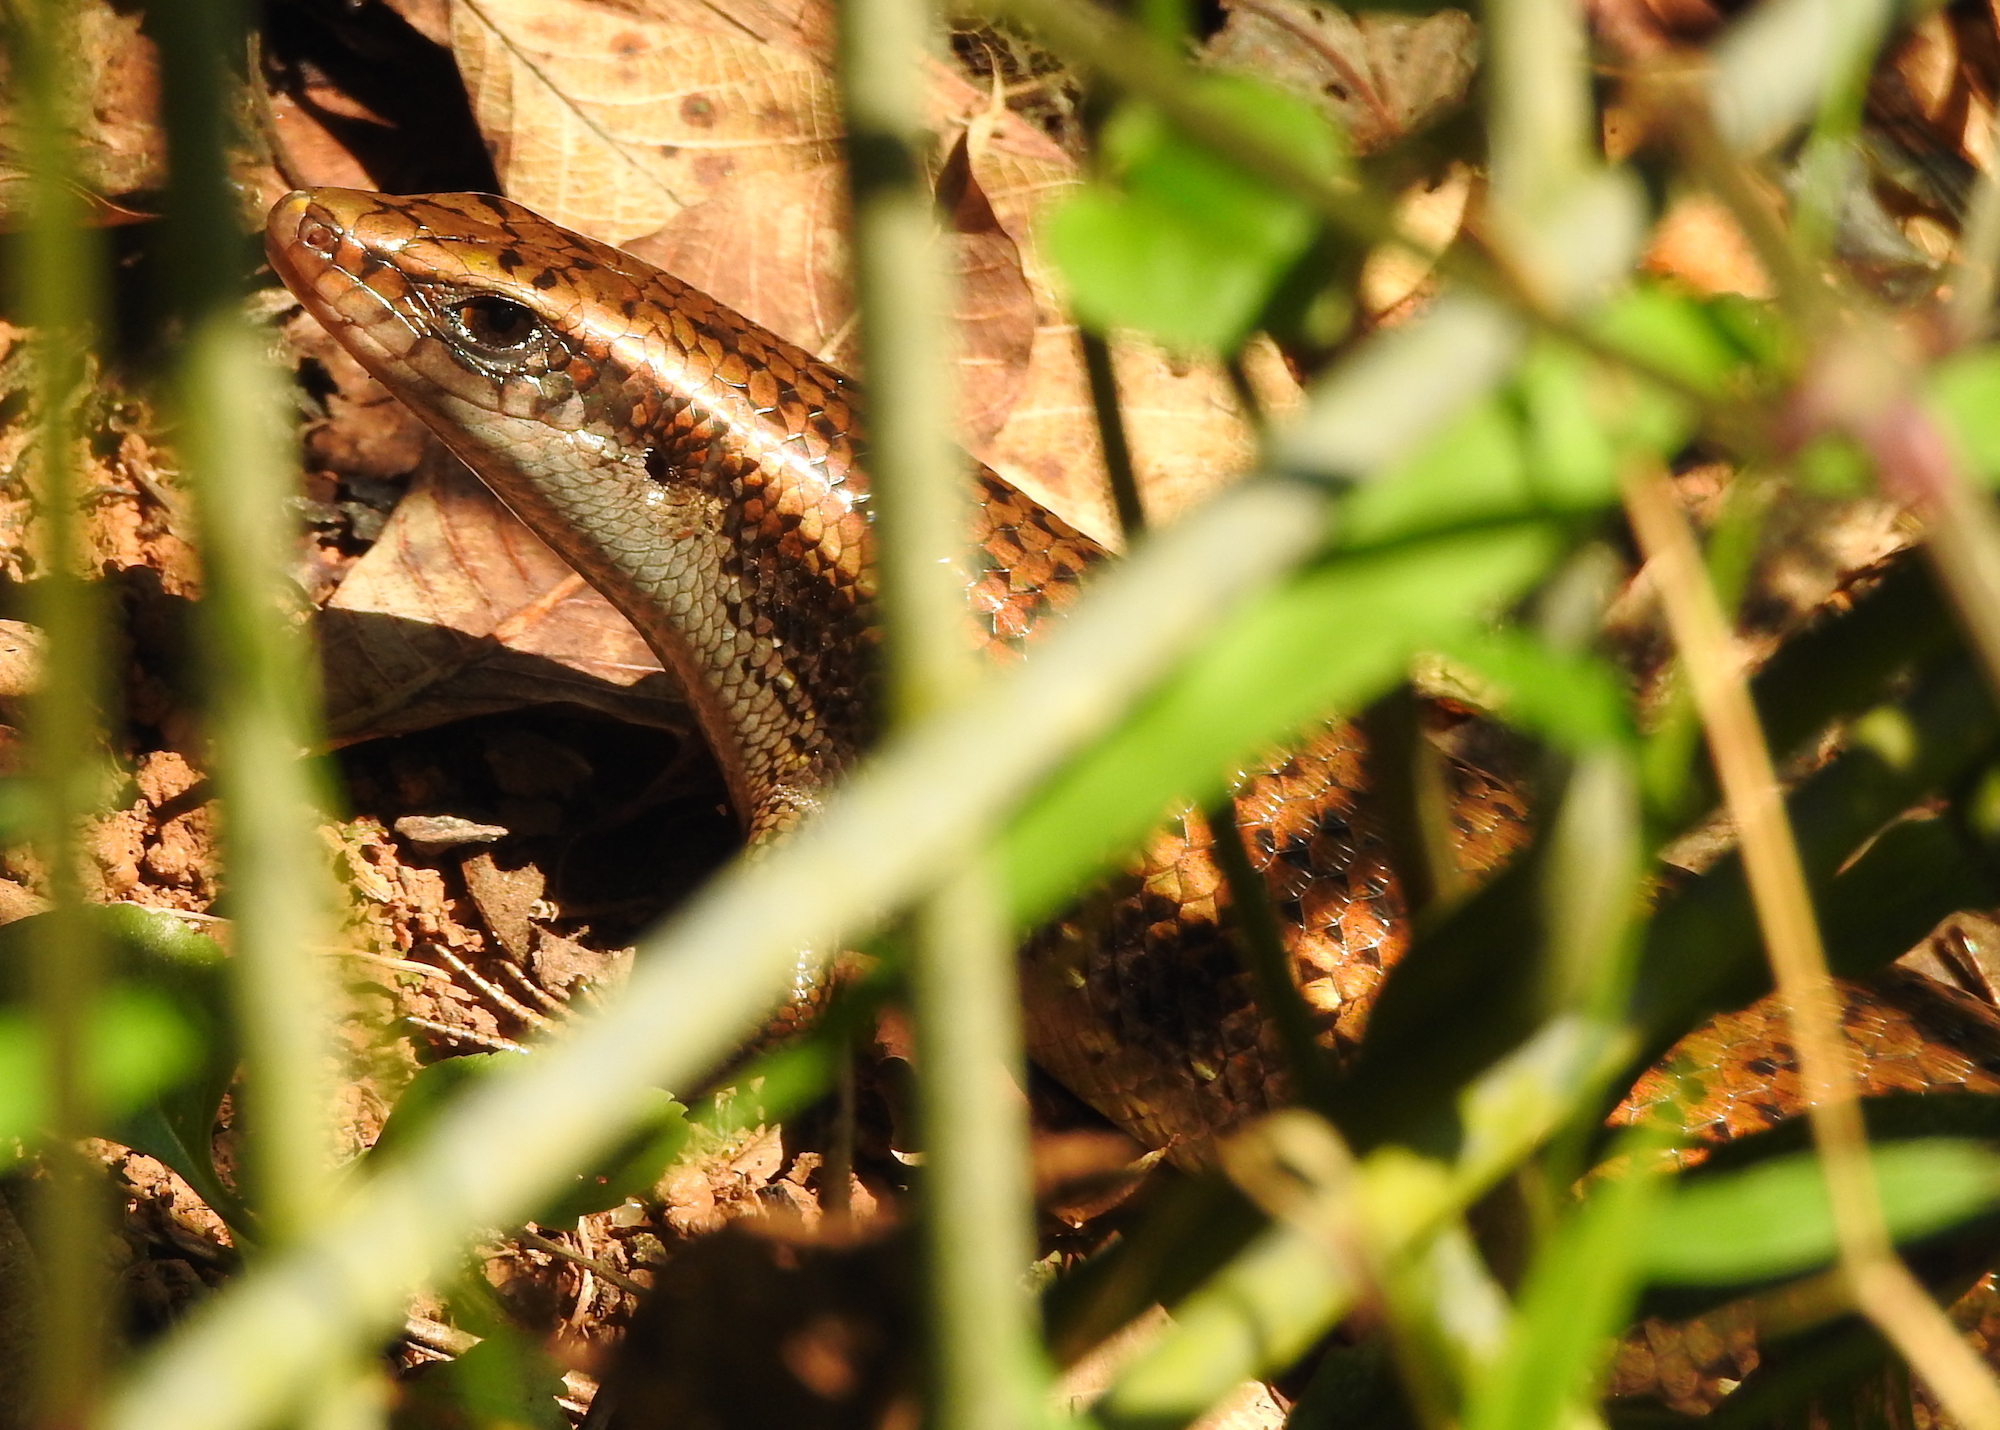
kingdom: Animalia
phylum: Chordata
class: Squamata
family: Scincidae
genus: Eutropis
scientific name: Eutropis multifasciata
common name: Common mabuya
